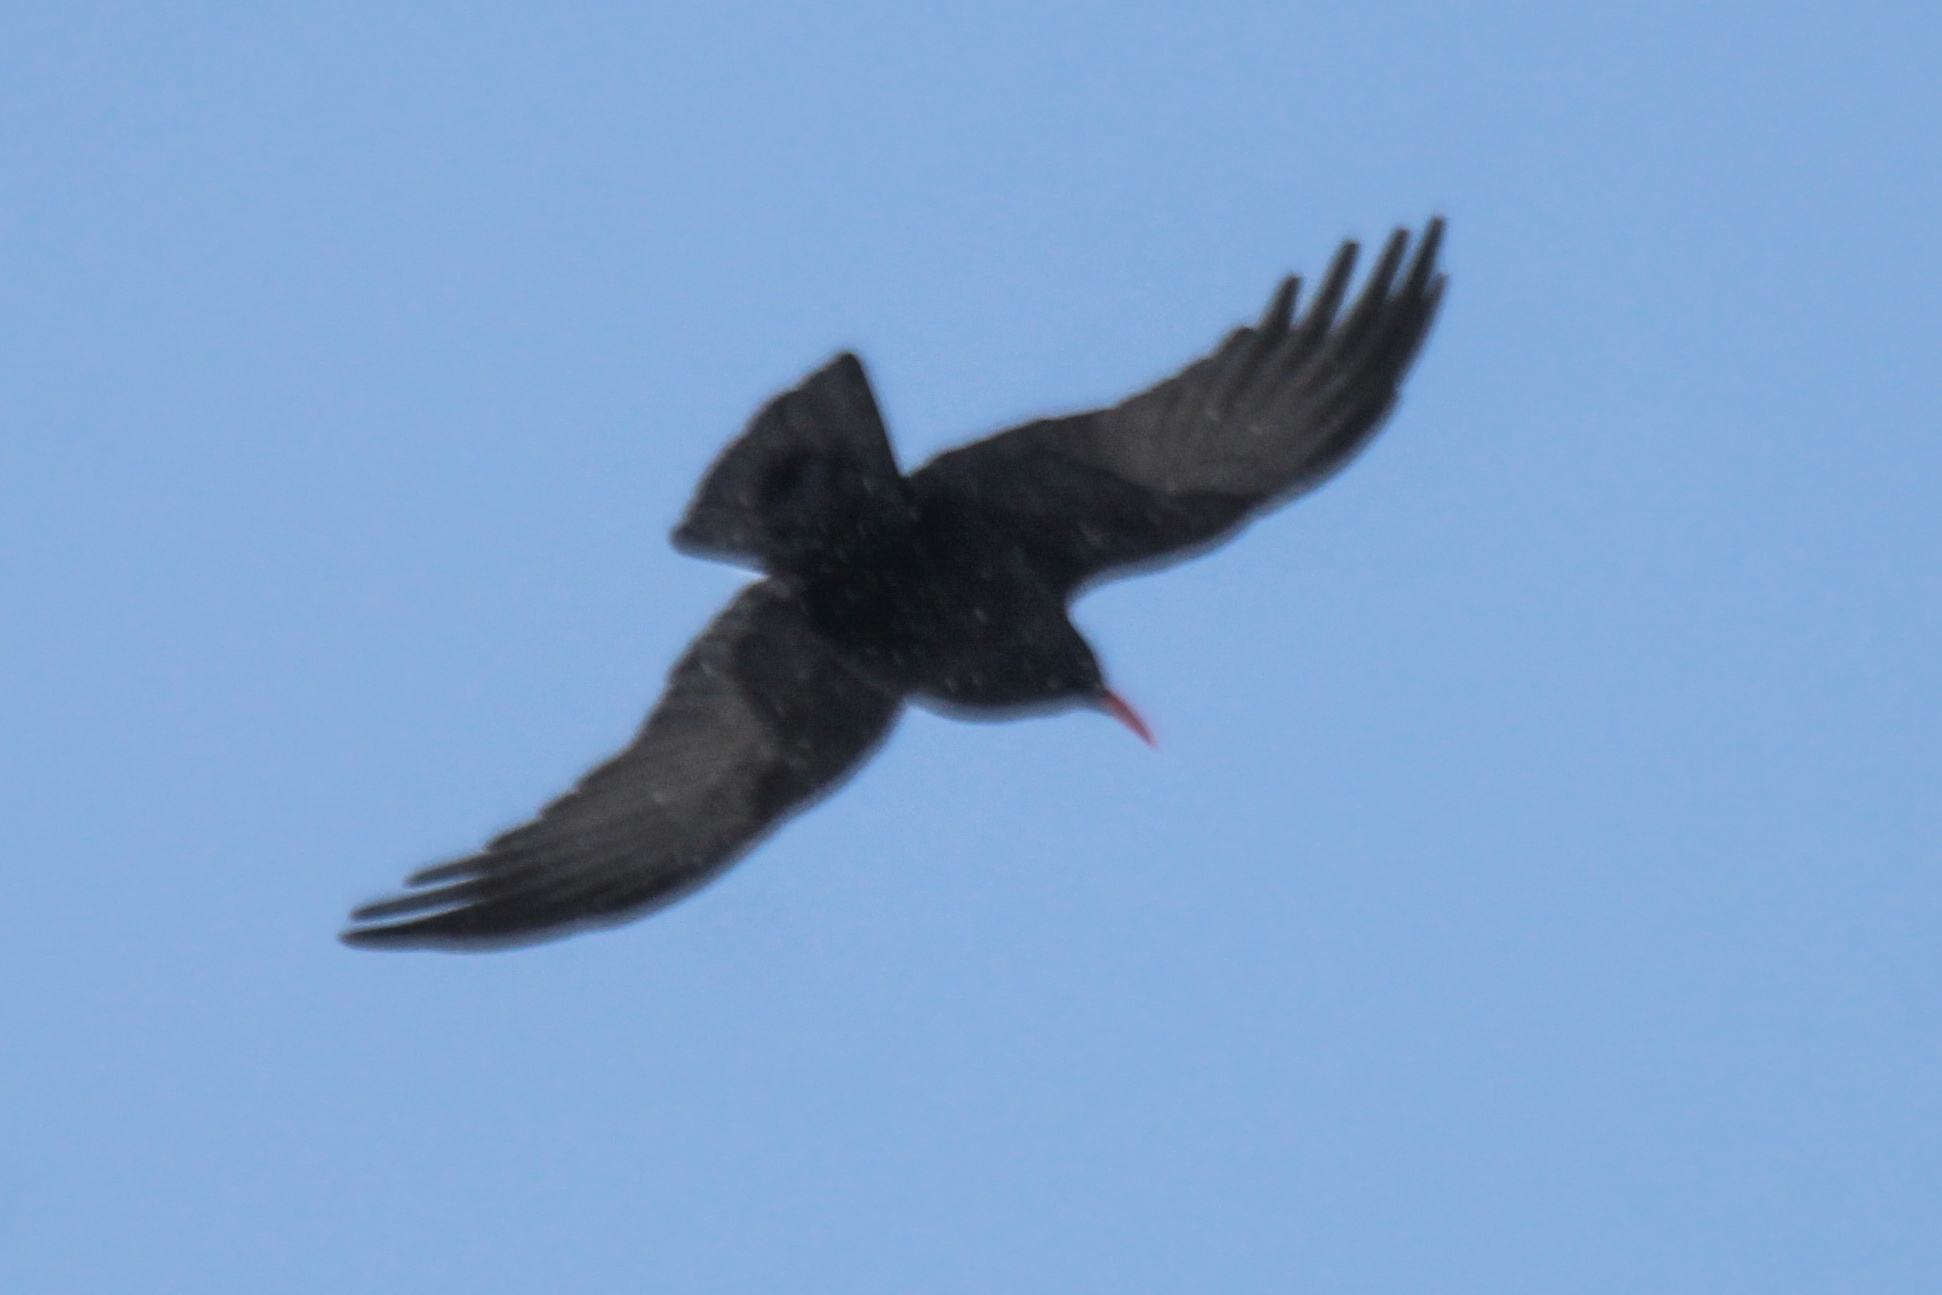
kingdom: Animalia
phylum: Chordata
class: Aves
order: Passeriformes
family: Corvidae
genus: Pyrrhocorax
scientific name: Pyrrhocorax pyrrhocorax
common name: Red-billed chough
